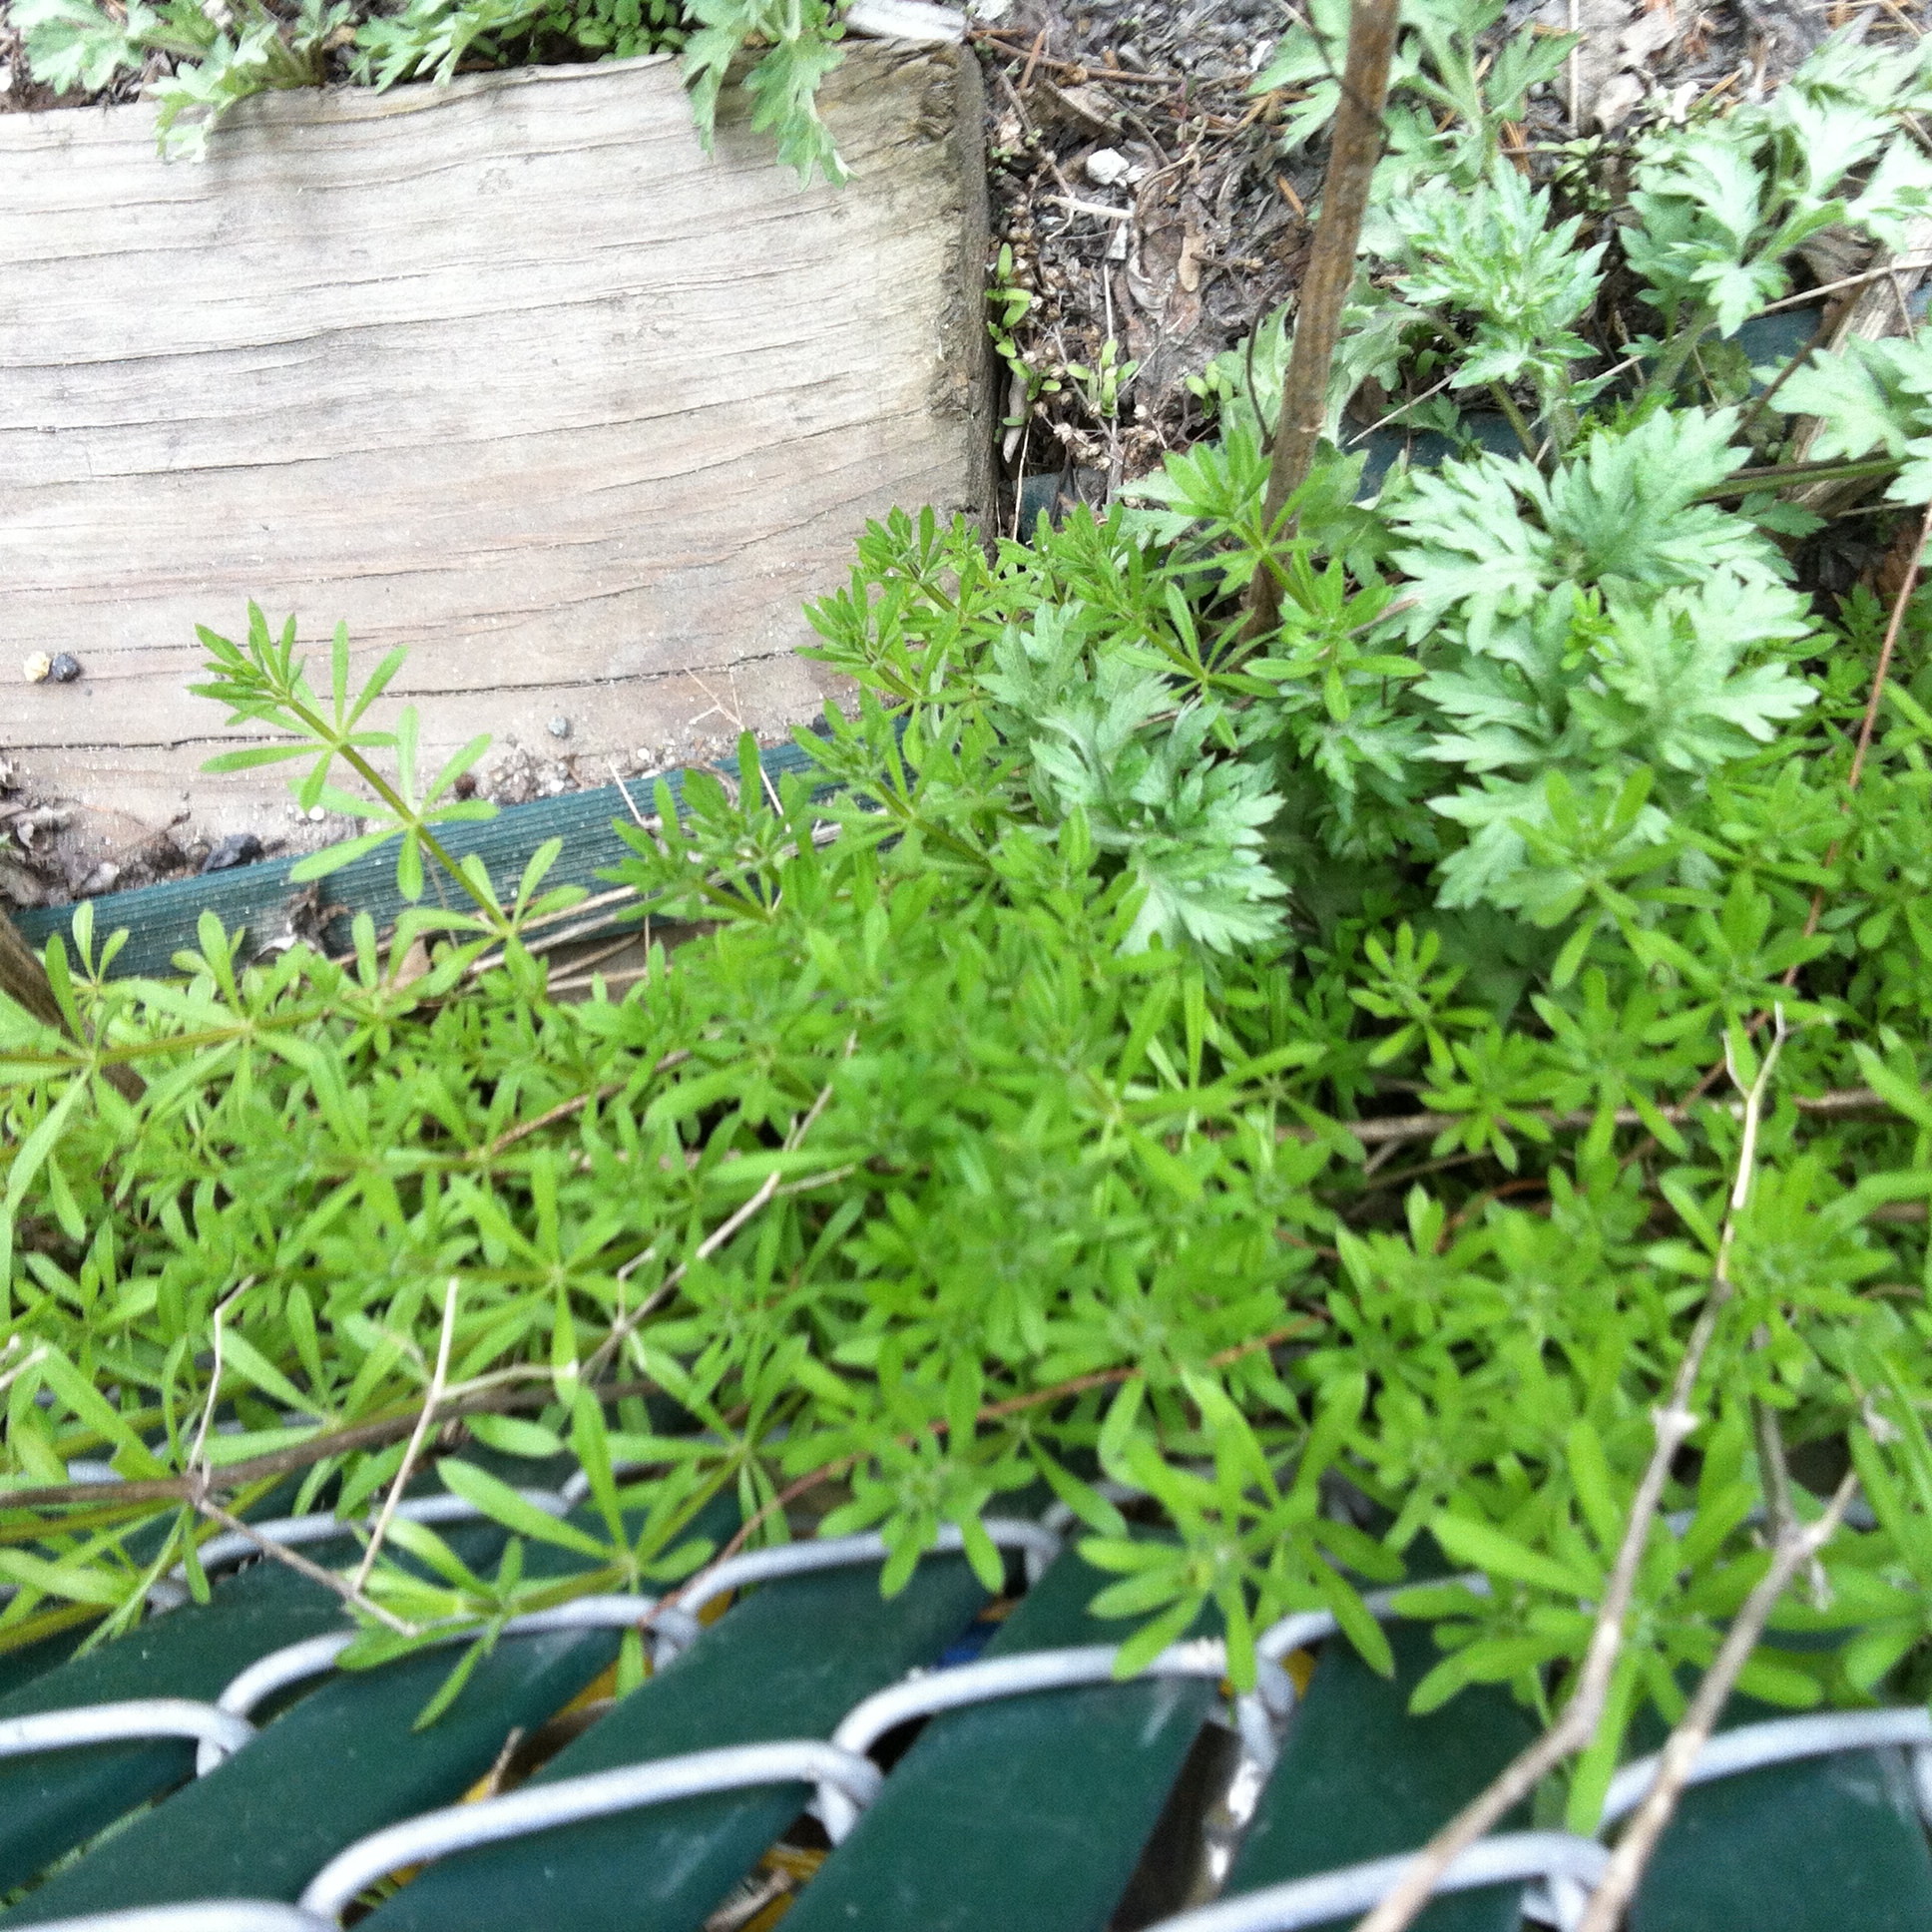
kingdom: Plantae
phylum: Tracheophyta
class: Magnoliopsida
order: Gentianales
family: Rubiaceae
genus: Galium
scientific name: Galium aparine
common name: Cleavers
